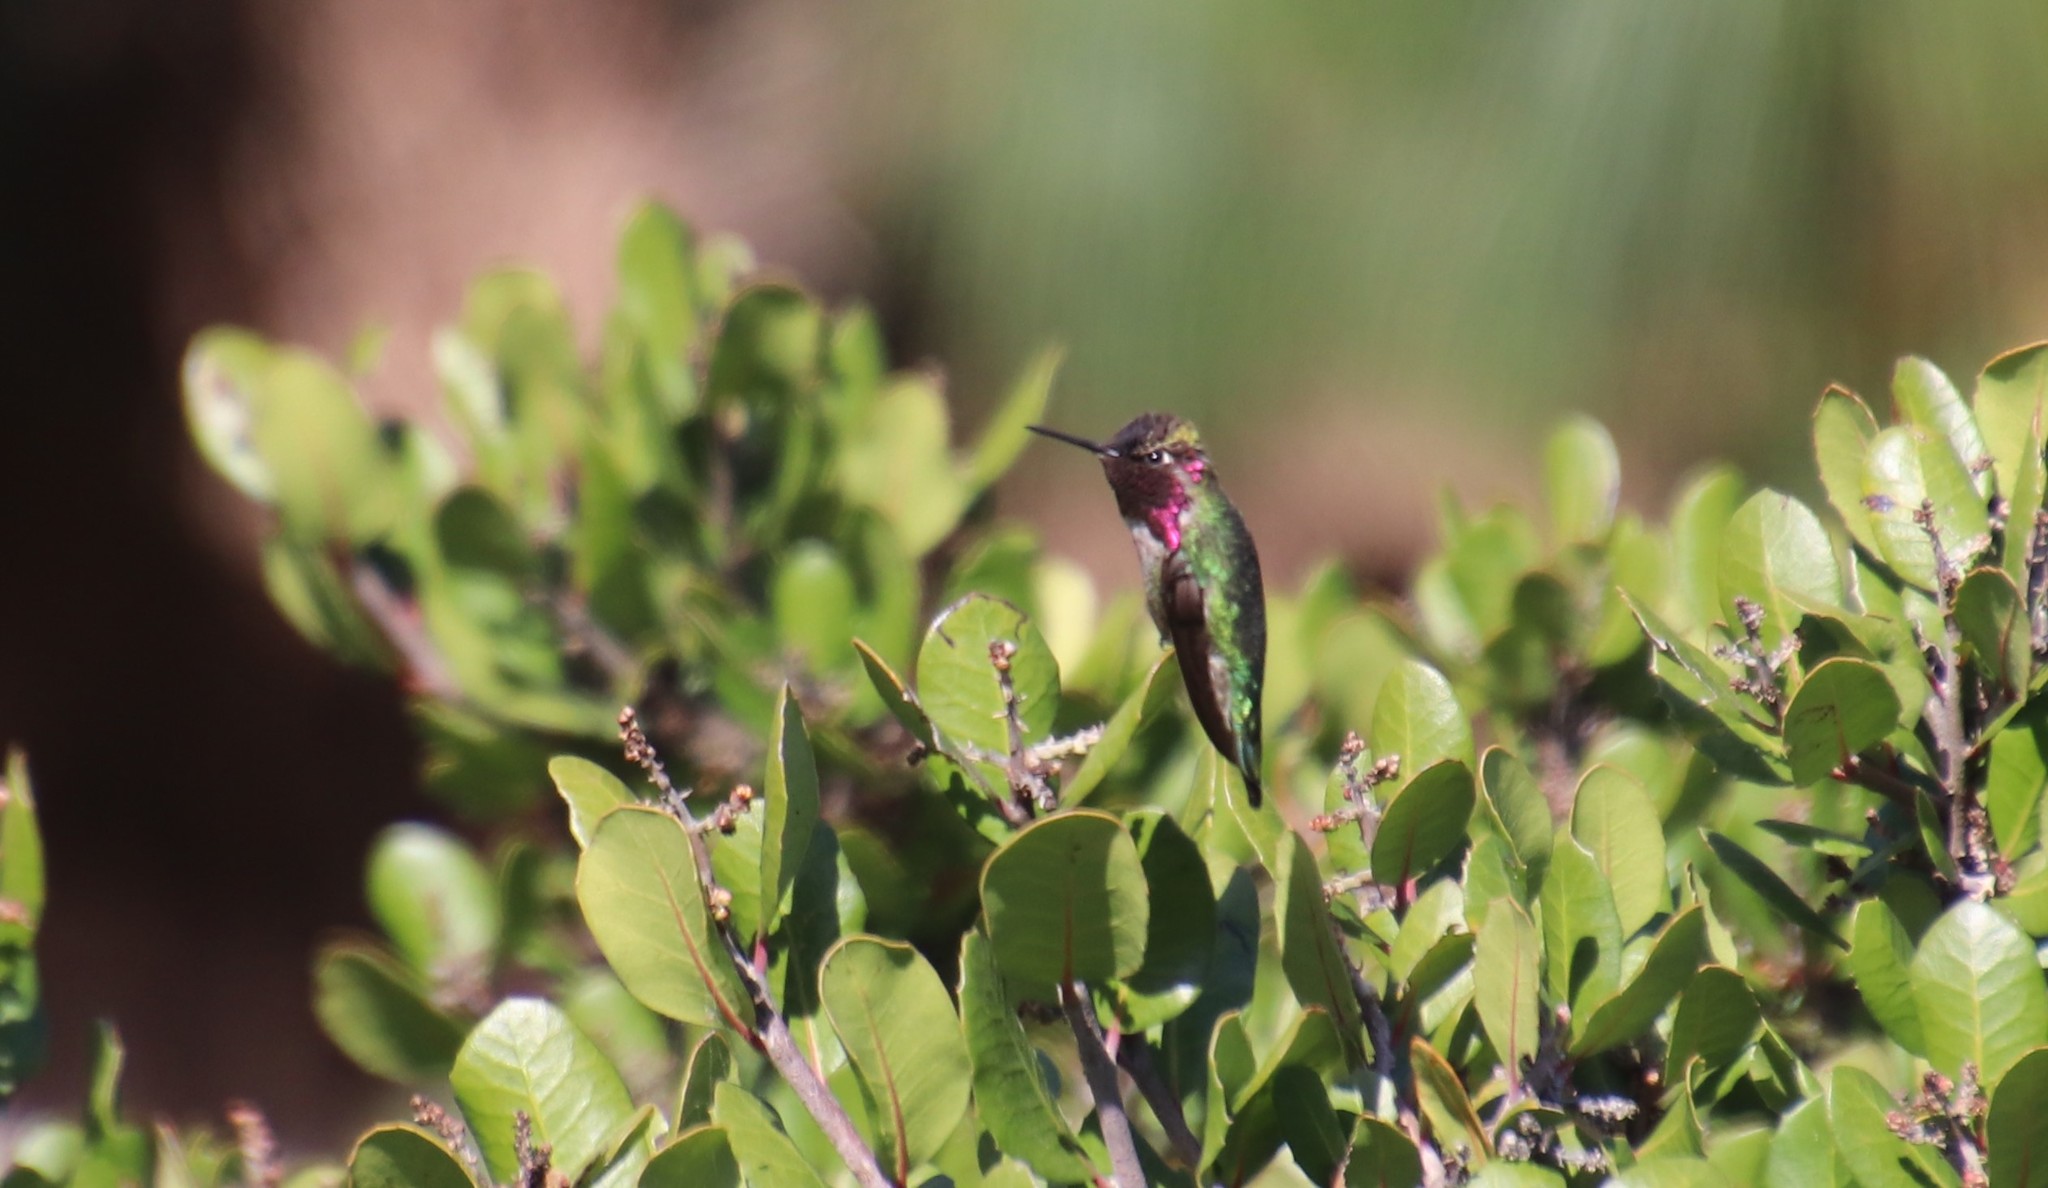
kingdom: Animalia
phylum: Chordata
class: Aves
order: Apodiformes
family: Trochilidae
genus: Calypte
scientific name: Calypte
